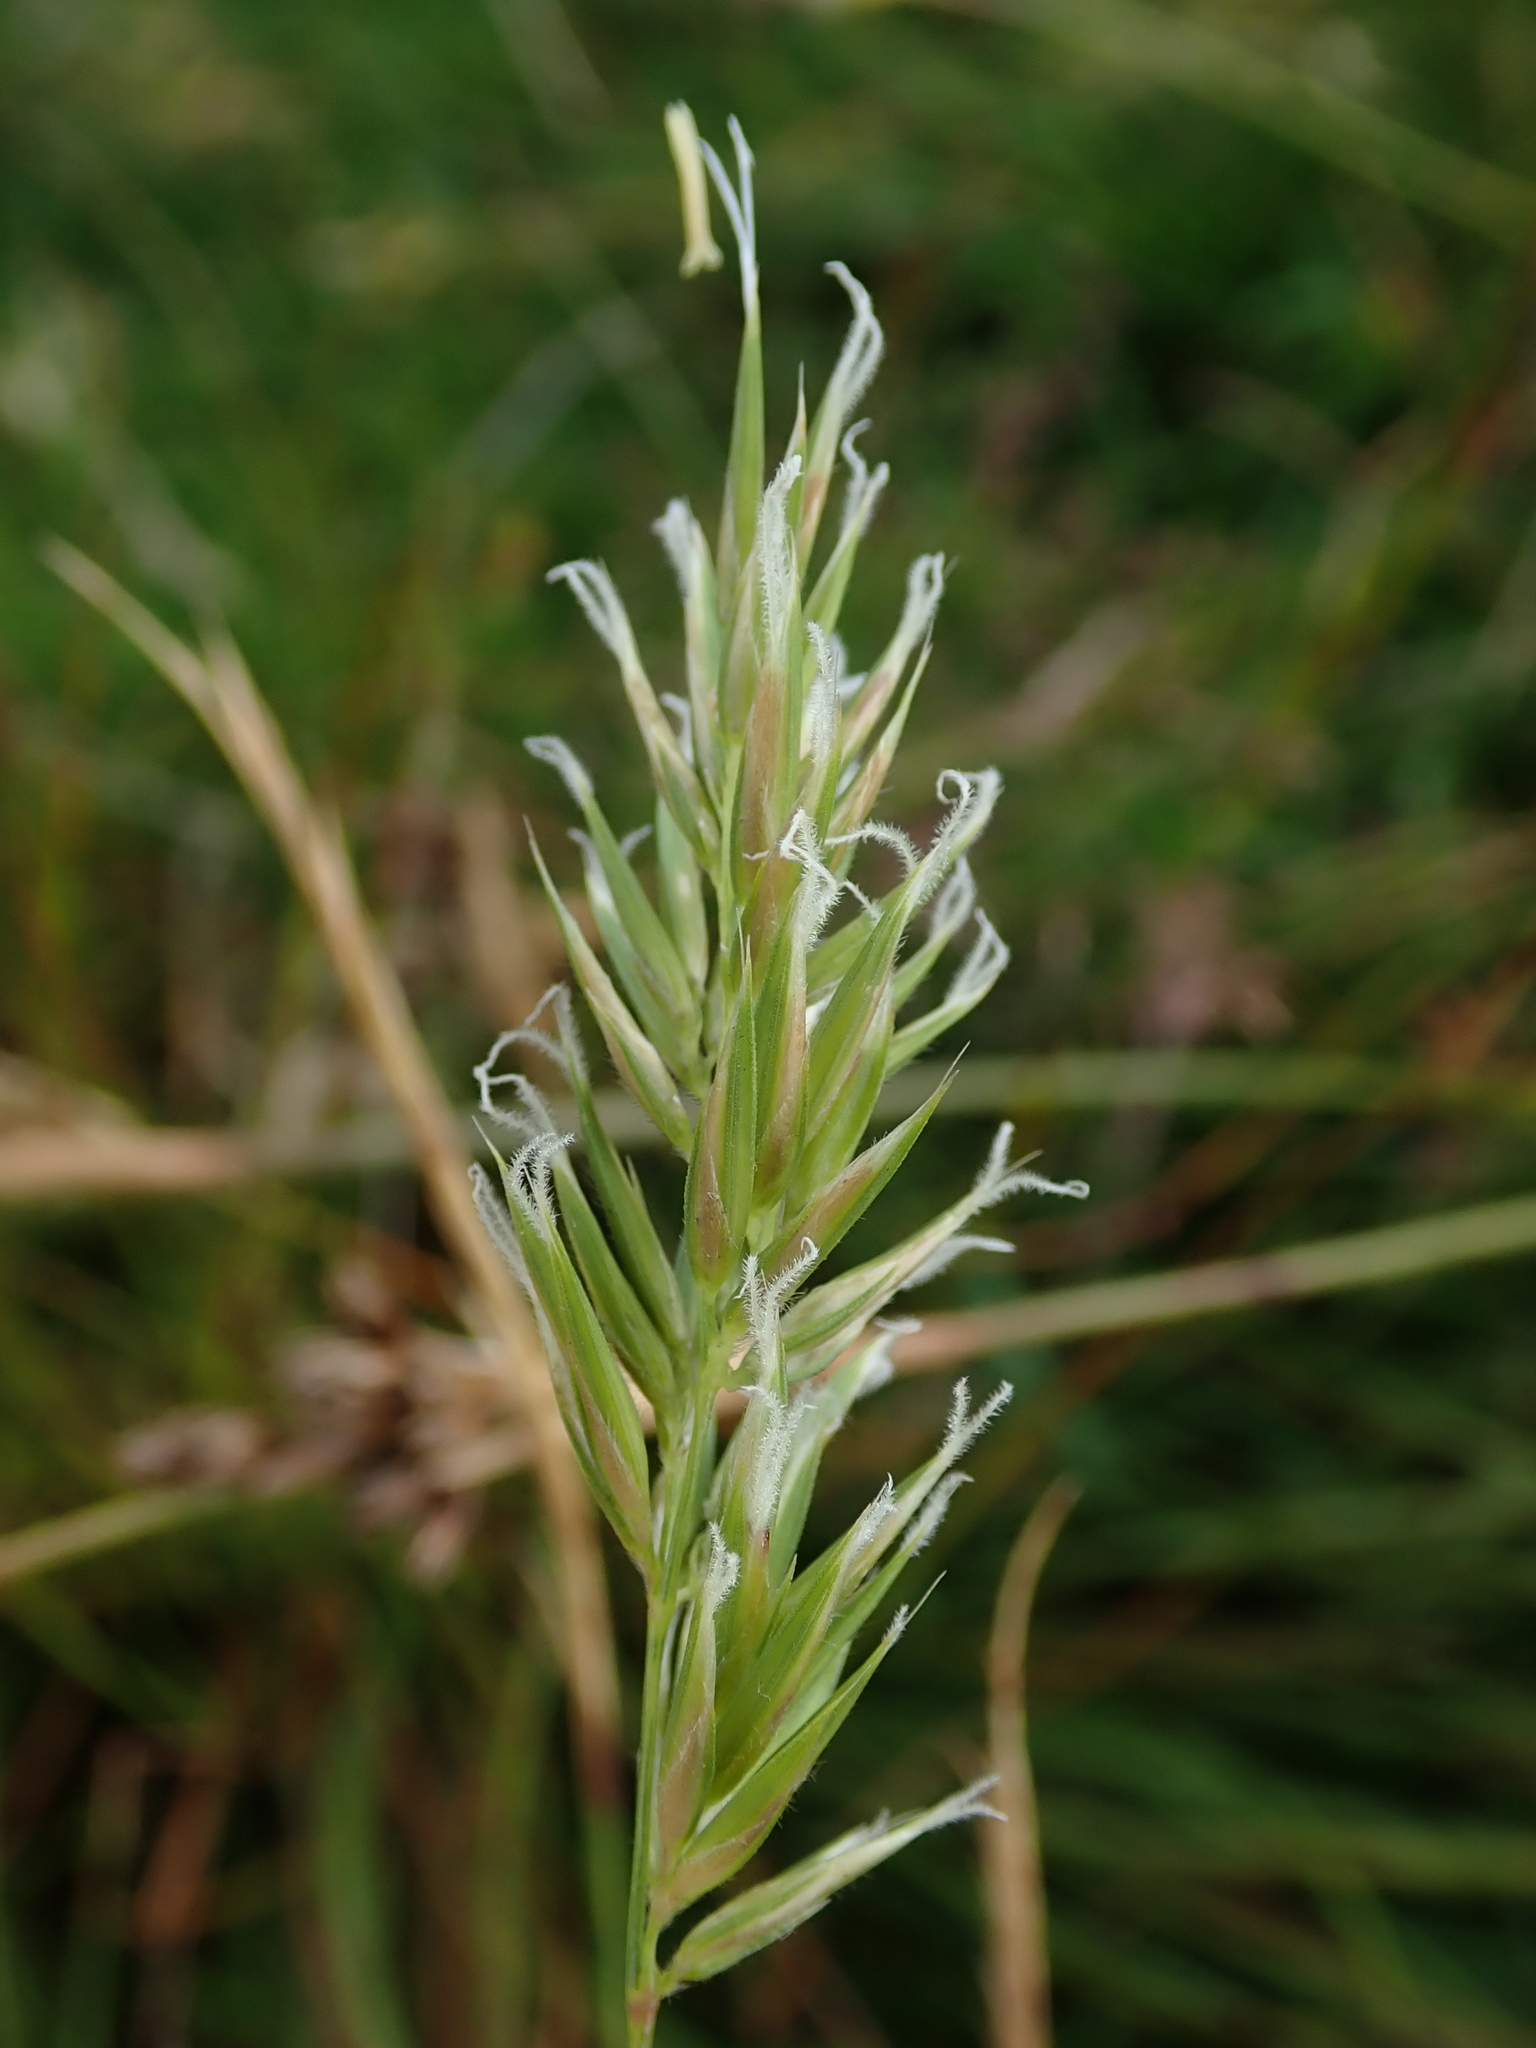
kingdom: Plantae
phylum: Tracheophyta
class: Liliopsida
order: Poales
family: Poaceae
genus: Anthoxanthum
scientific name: Anthoxanthum odoratum
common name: Sweet vernalgrass
